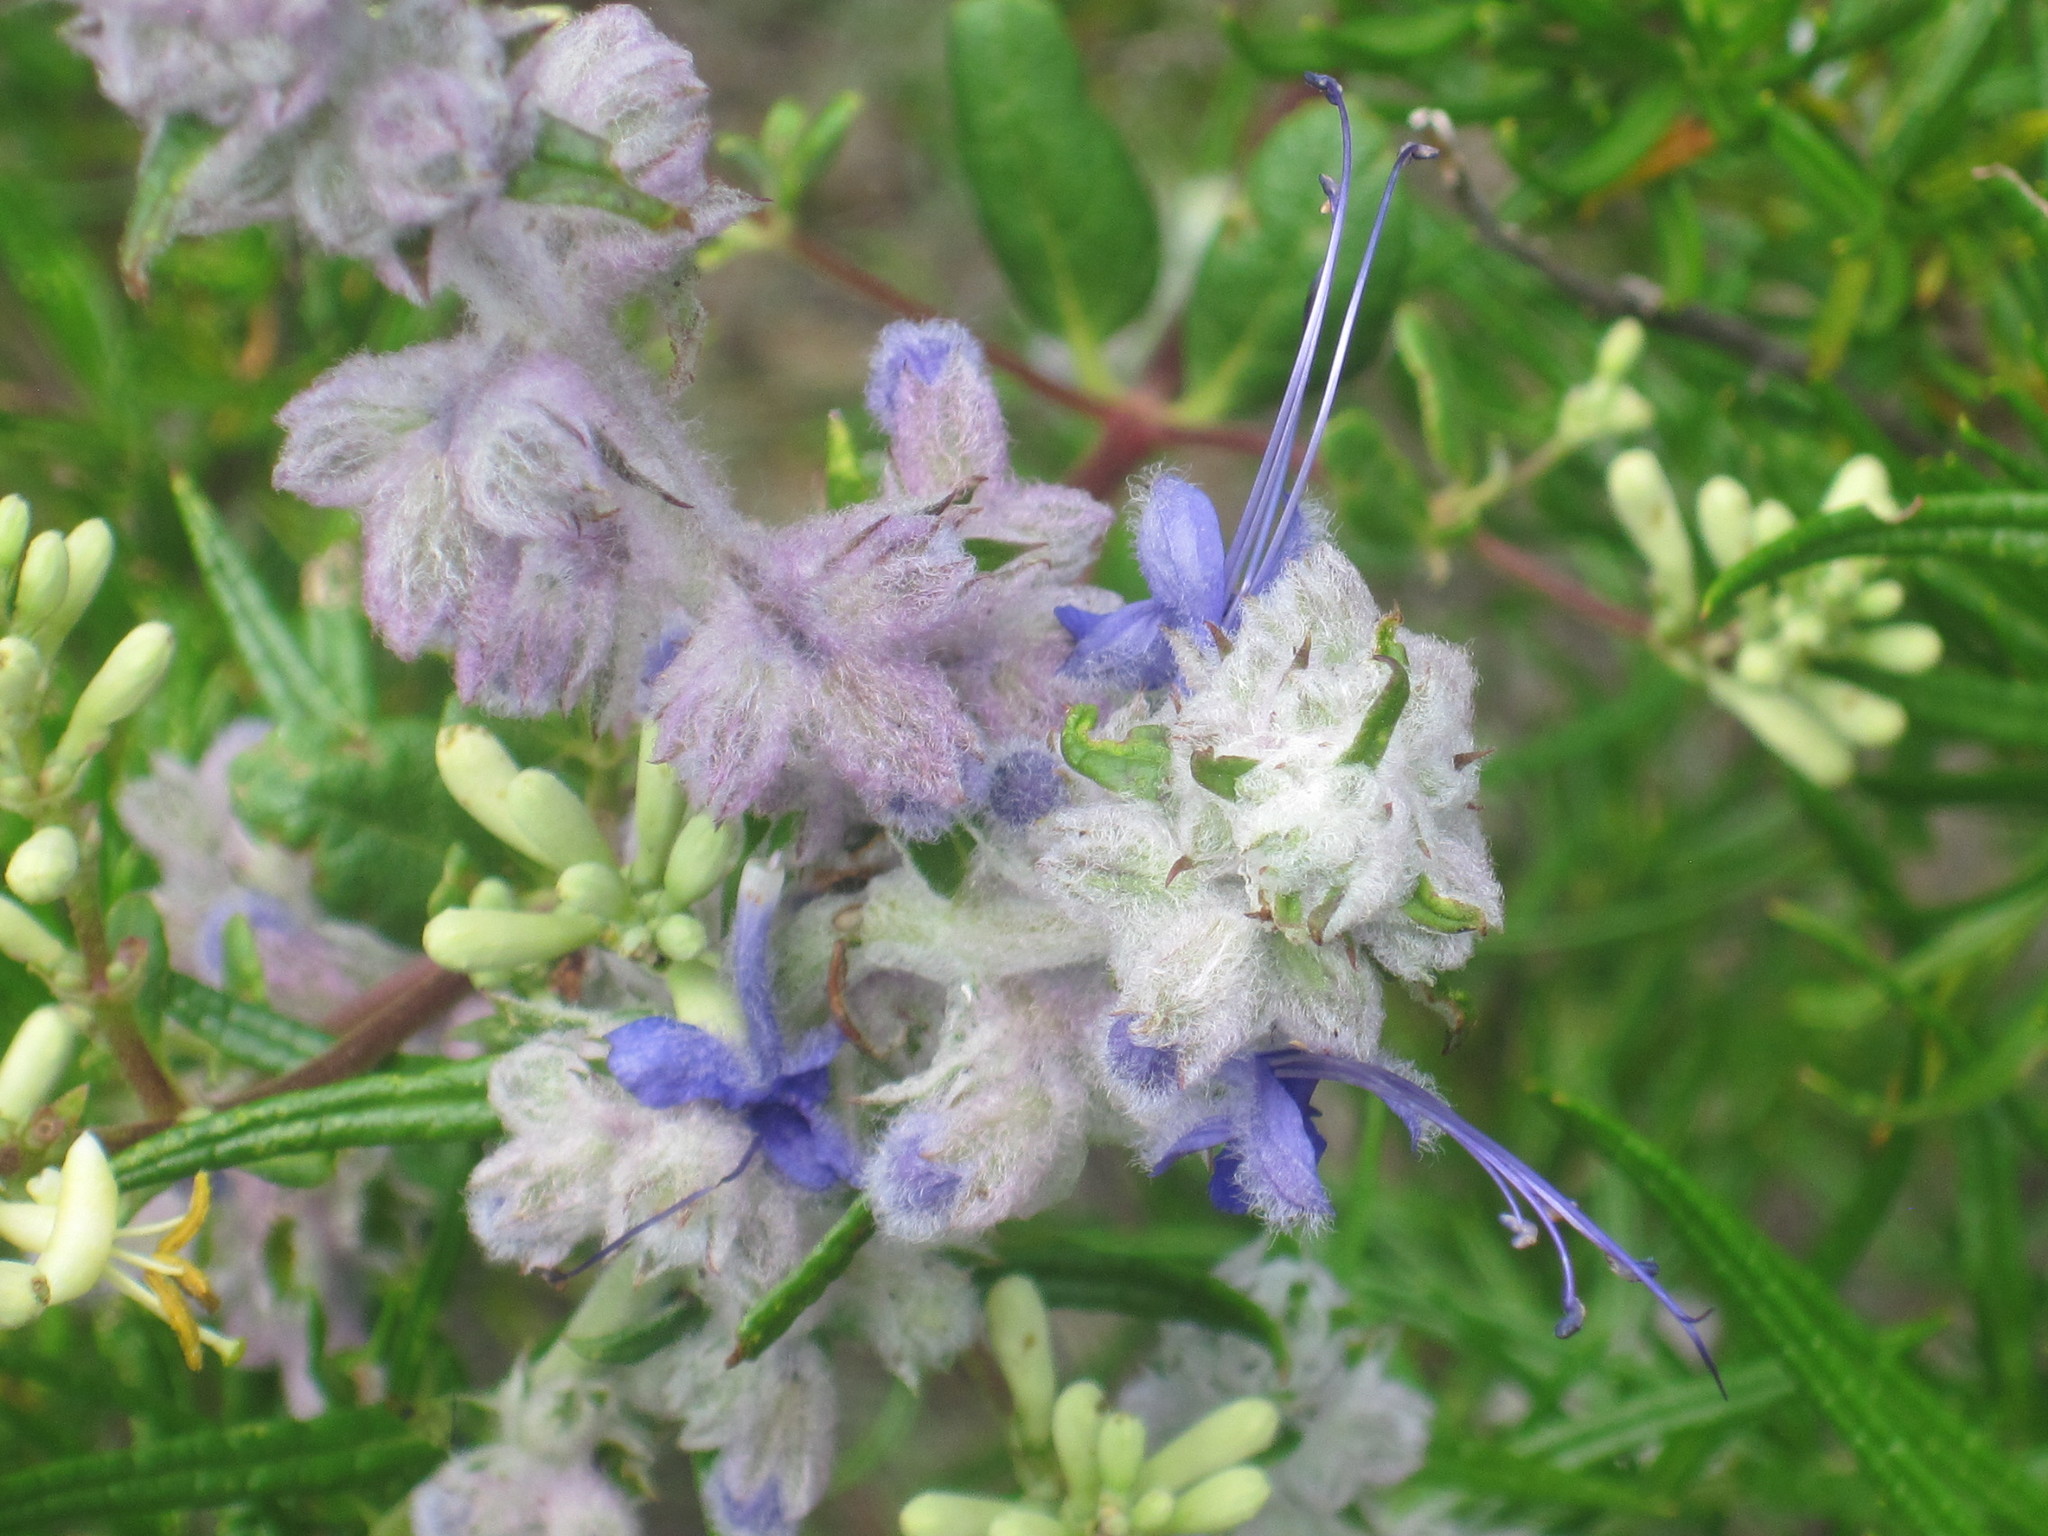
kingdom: Plantae
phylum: Tracheophyta
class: Magnoliopsida
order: Lamiales
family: Lamiaceae
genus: Trichostema
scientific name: Trichostema lanatum
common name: Woolly bluecurls
